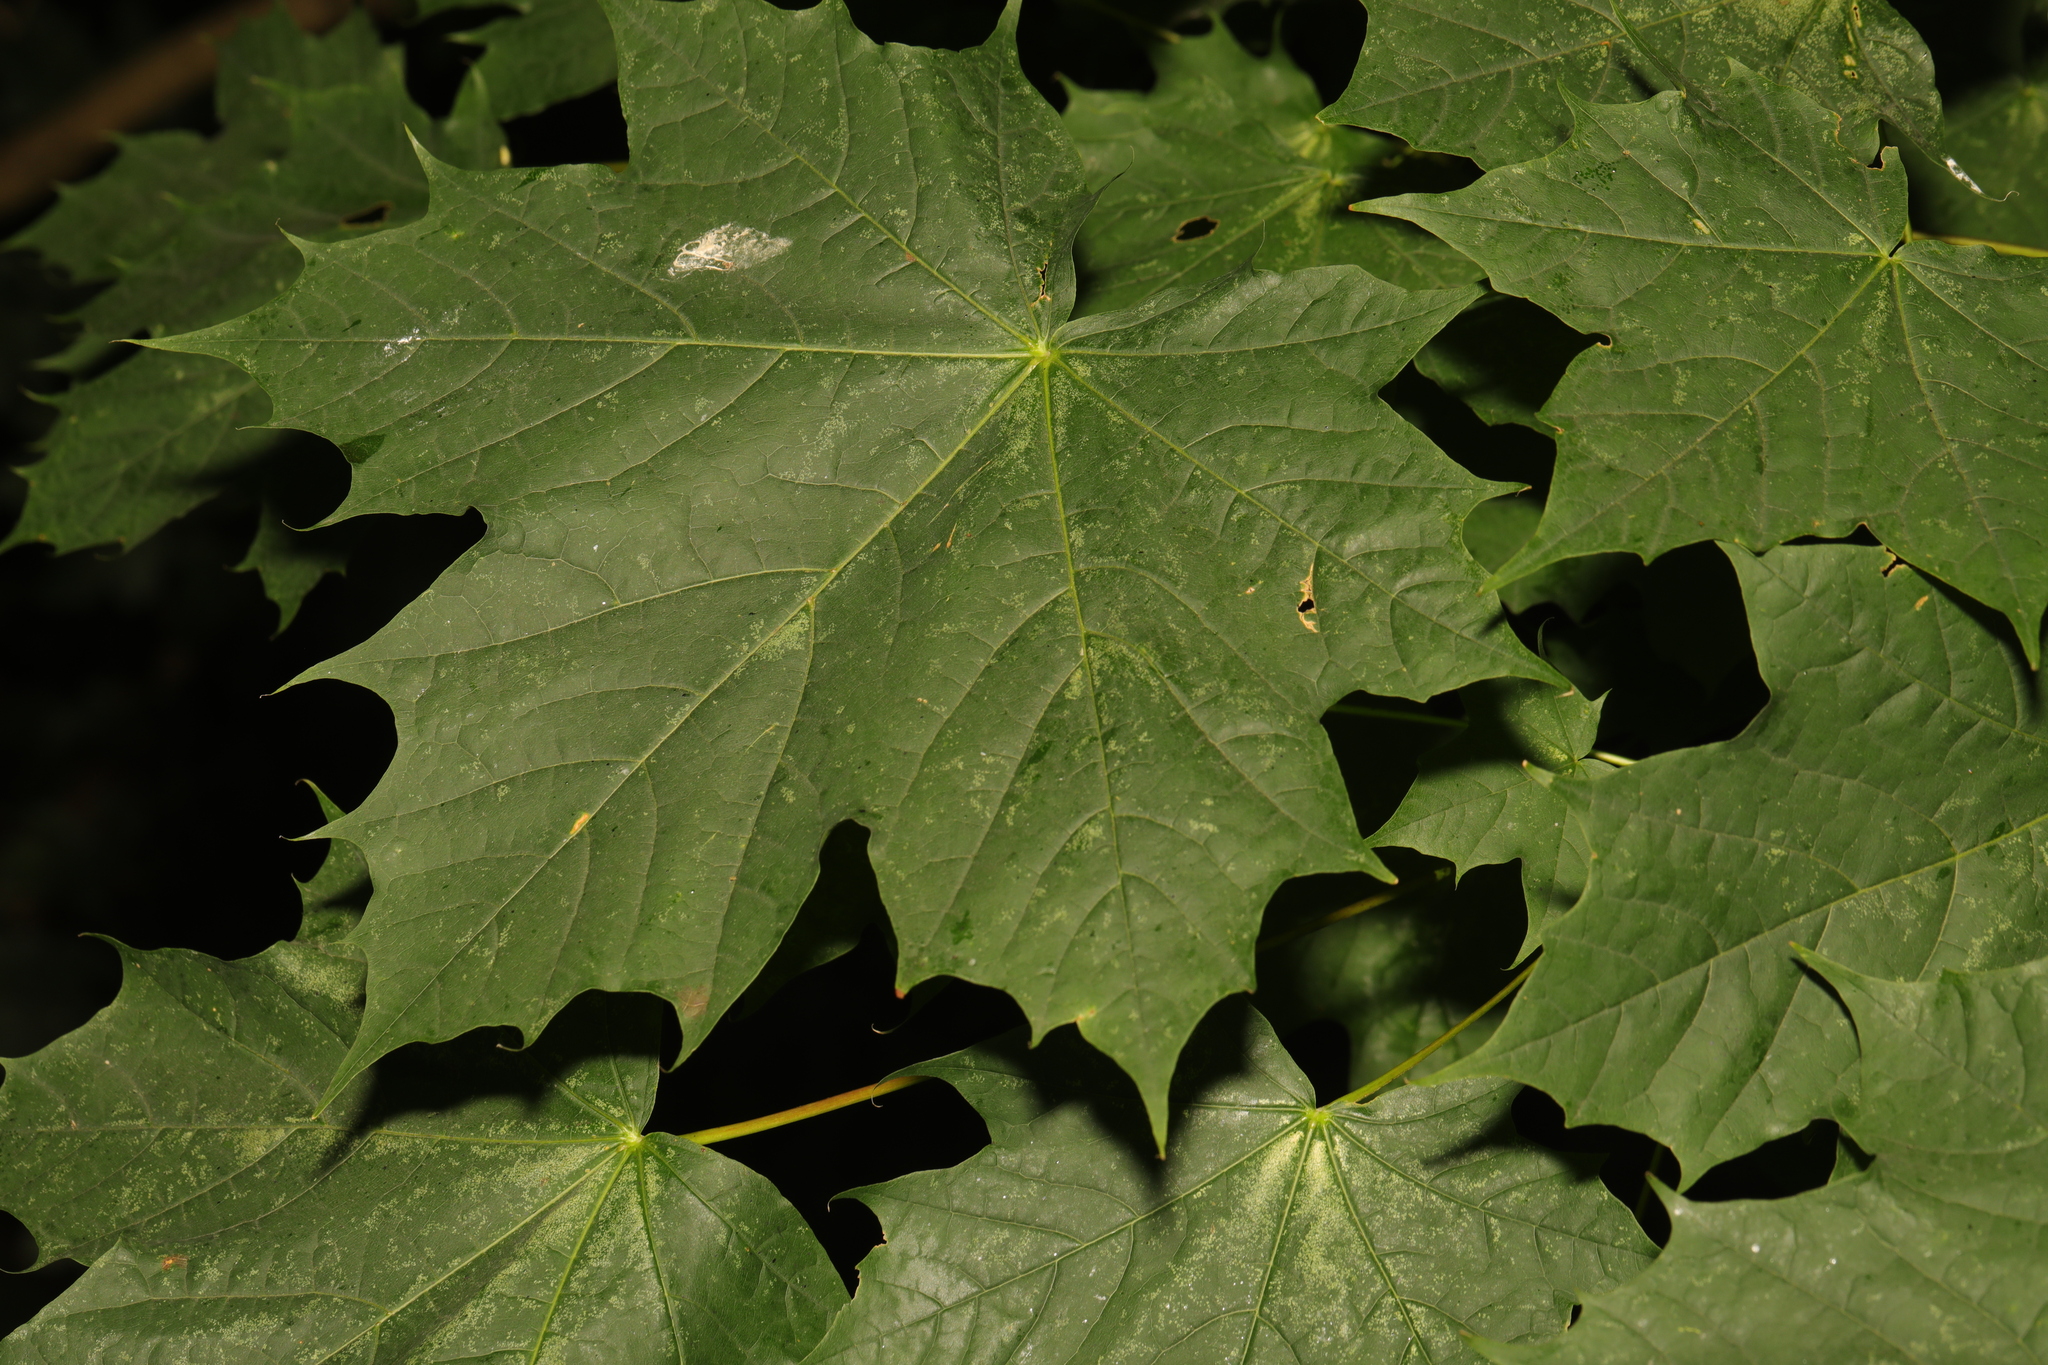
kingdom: Plantae
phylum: Tracheophyta
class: Magnoliopsida
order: Sapindales
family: Sapindaceae
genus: Acer
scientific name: Acer platanoides
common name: Norway maple
